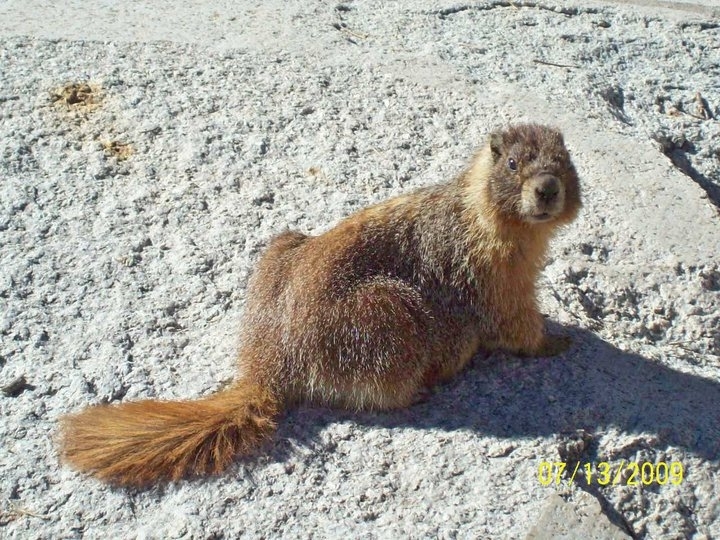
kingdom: Animalia
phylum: Chordata
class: Mammalia
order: Rodentia
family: Sciuridae
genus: Marmota
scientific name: Marmota flaviventris
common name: Yellow-bellied marmot
